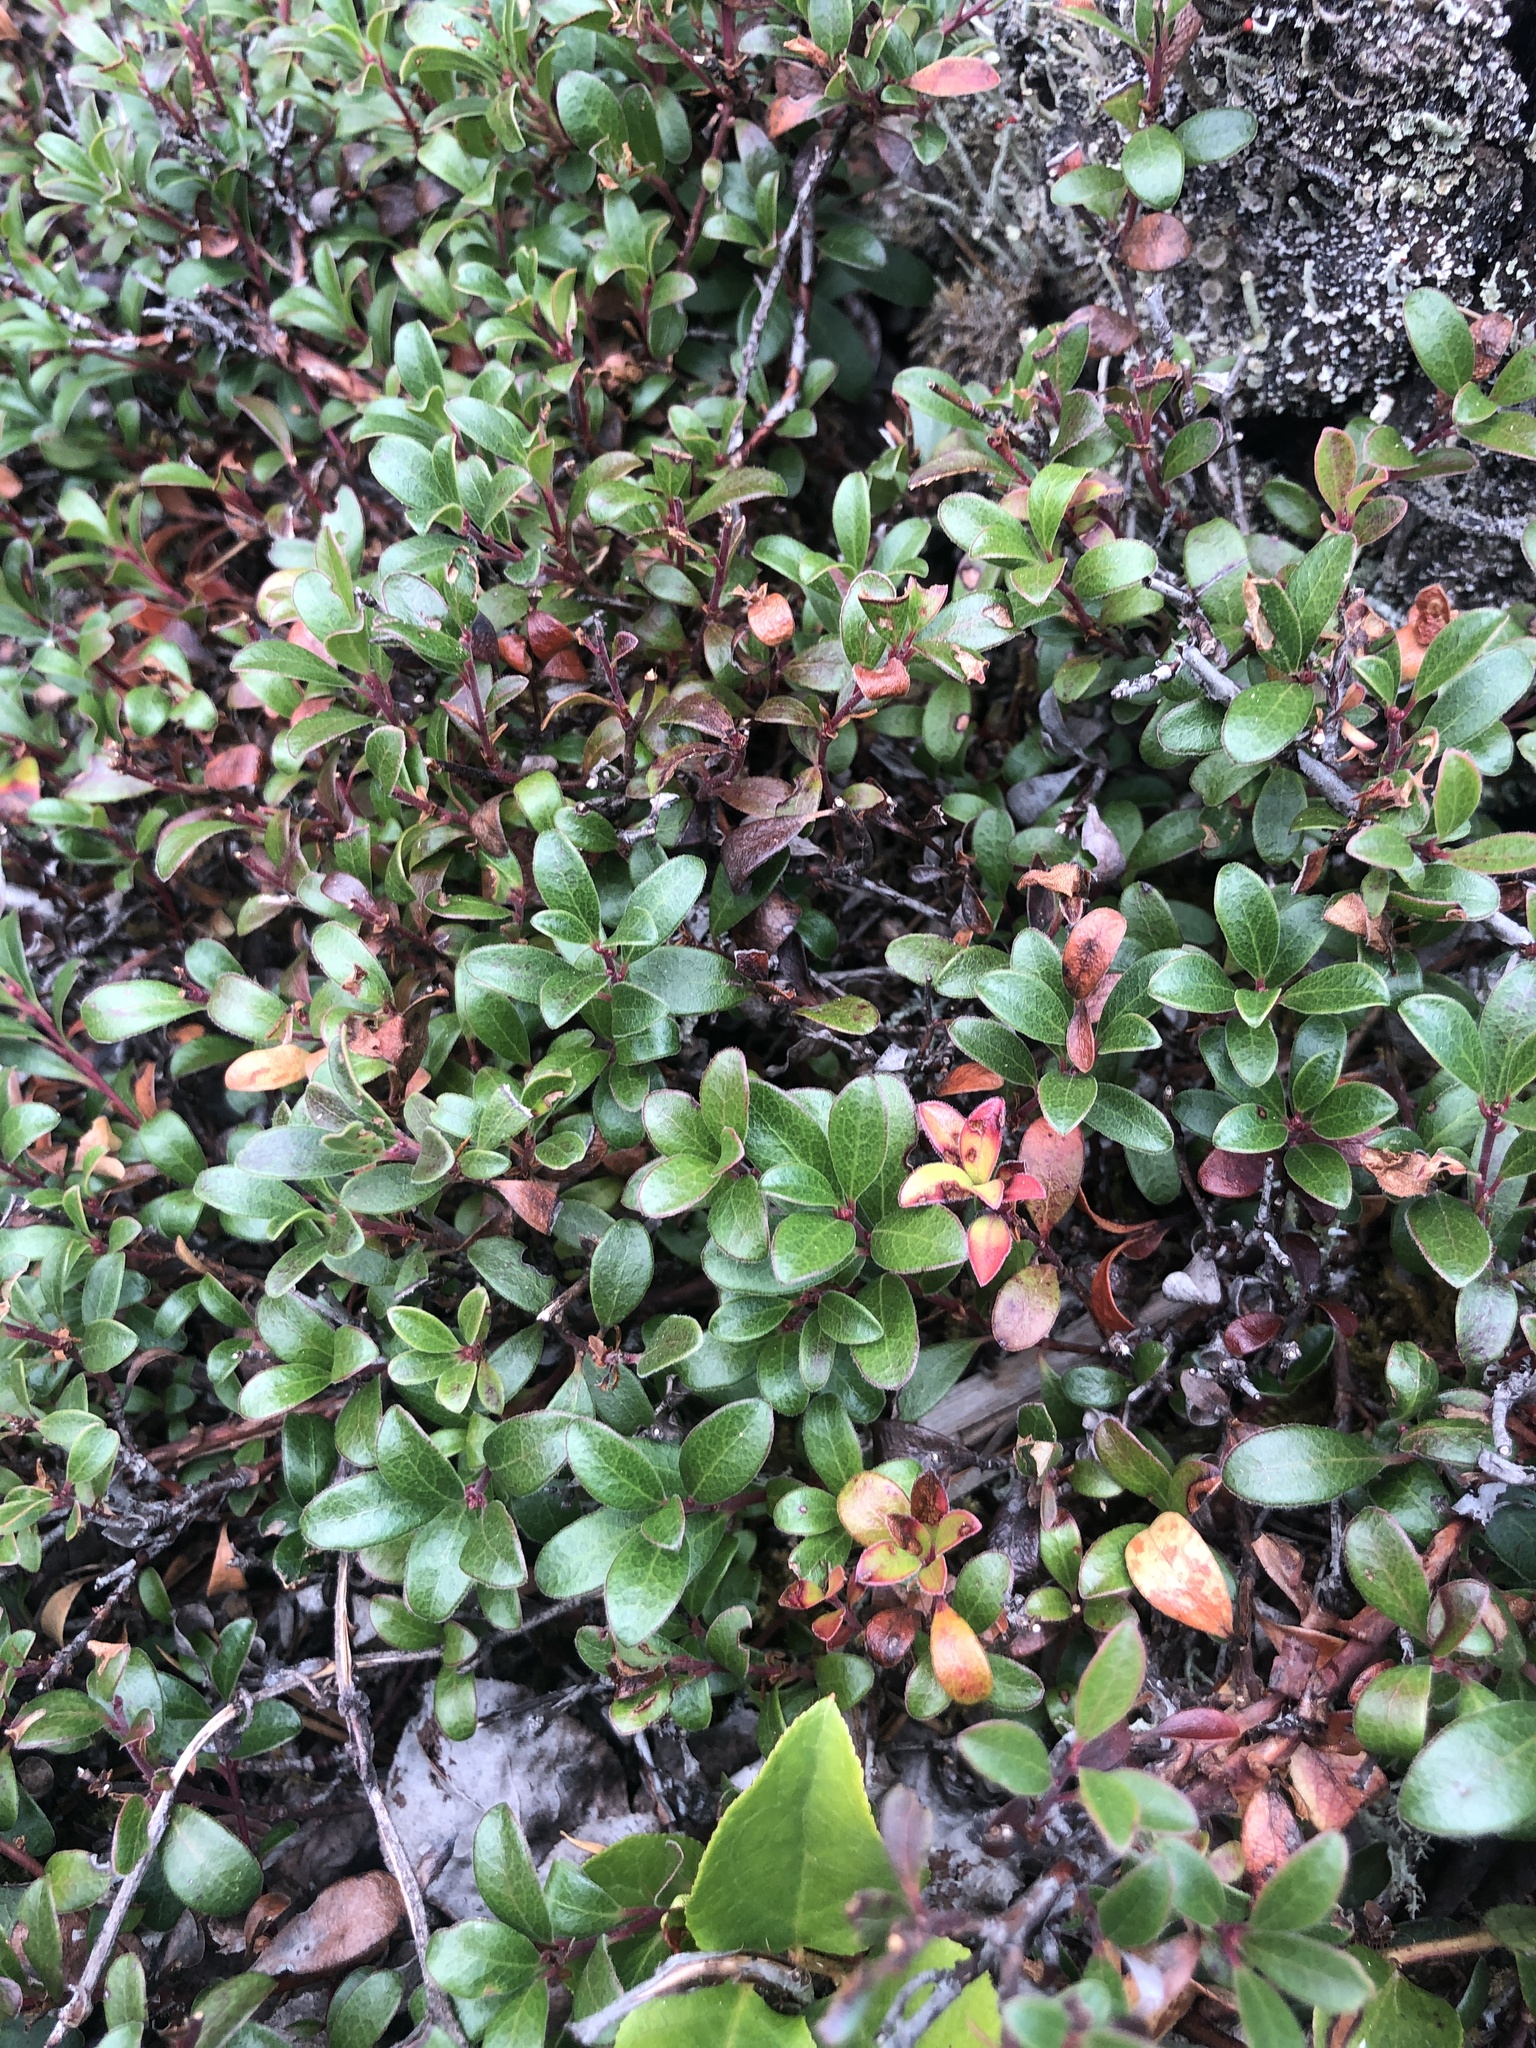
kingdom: Plantae
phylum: Tracheophyta
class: Magnoliopsida
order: Ericales
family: Ericaceae
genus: Arctostaphylos
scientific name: Arctostaphylos uva-ursi
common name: Bearberry
